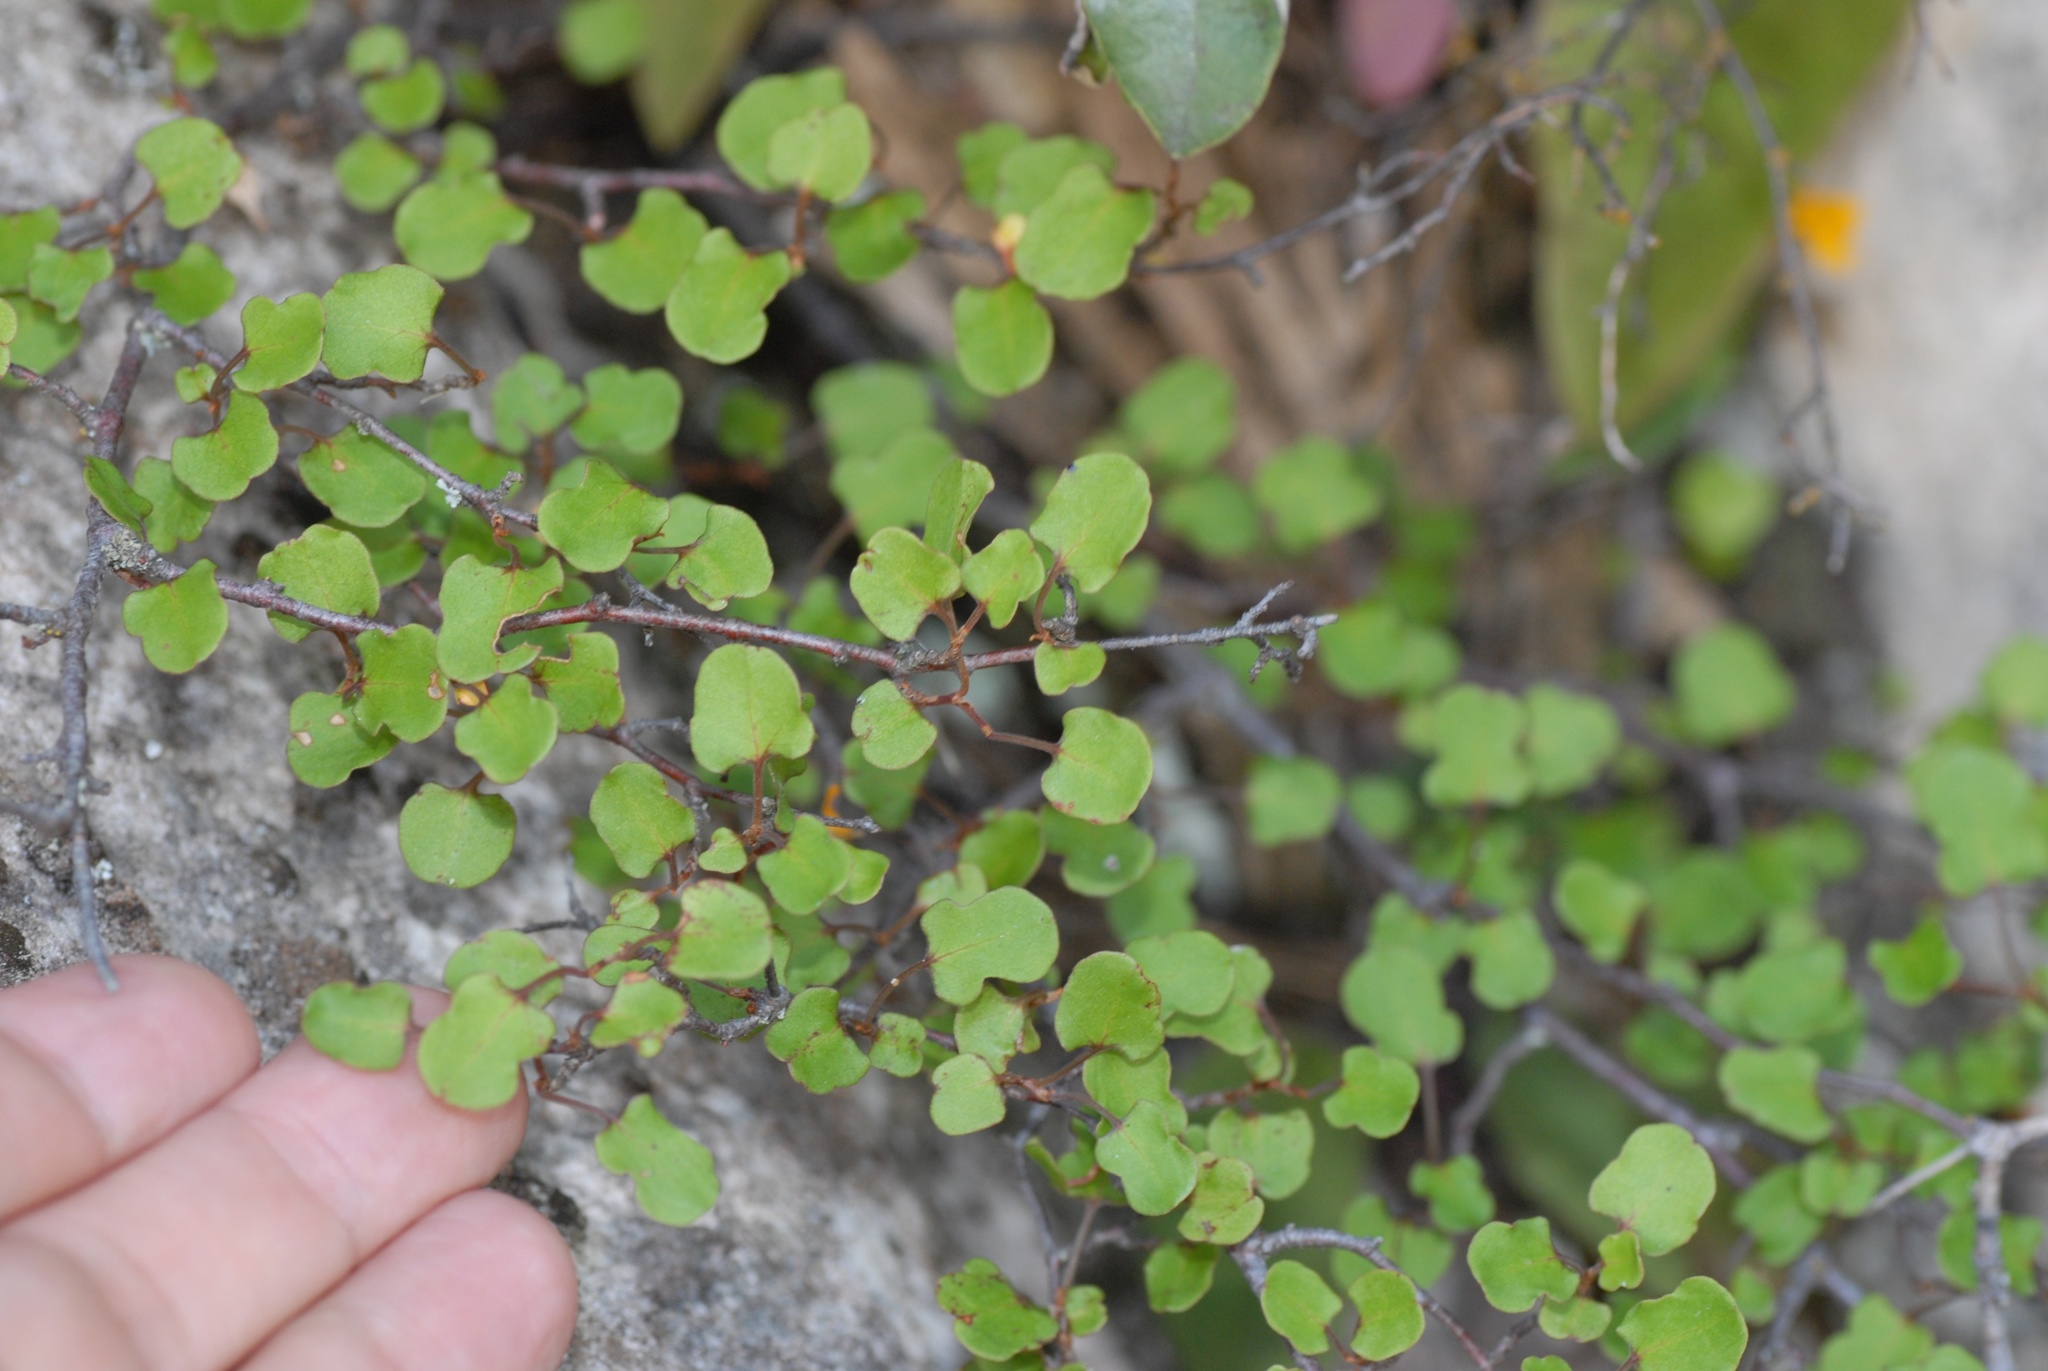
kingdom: Plantae
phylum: Tracheophyta
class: Magnoliopsida
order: Caryophyllales
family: Polygonaceae
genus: Muehlenbeckia
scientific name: Muehlenbeckia complexa
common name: Wireplant
